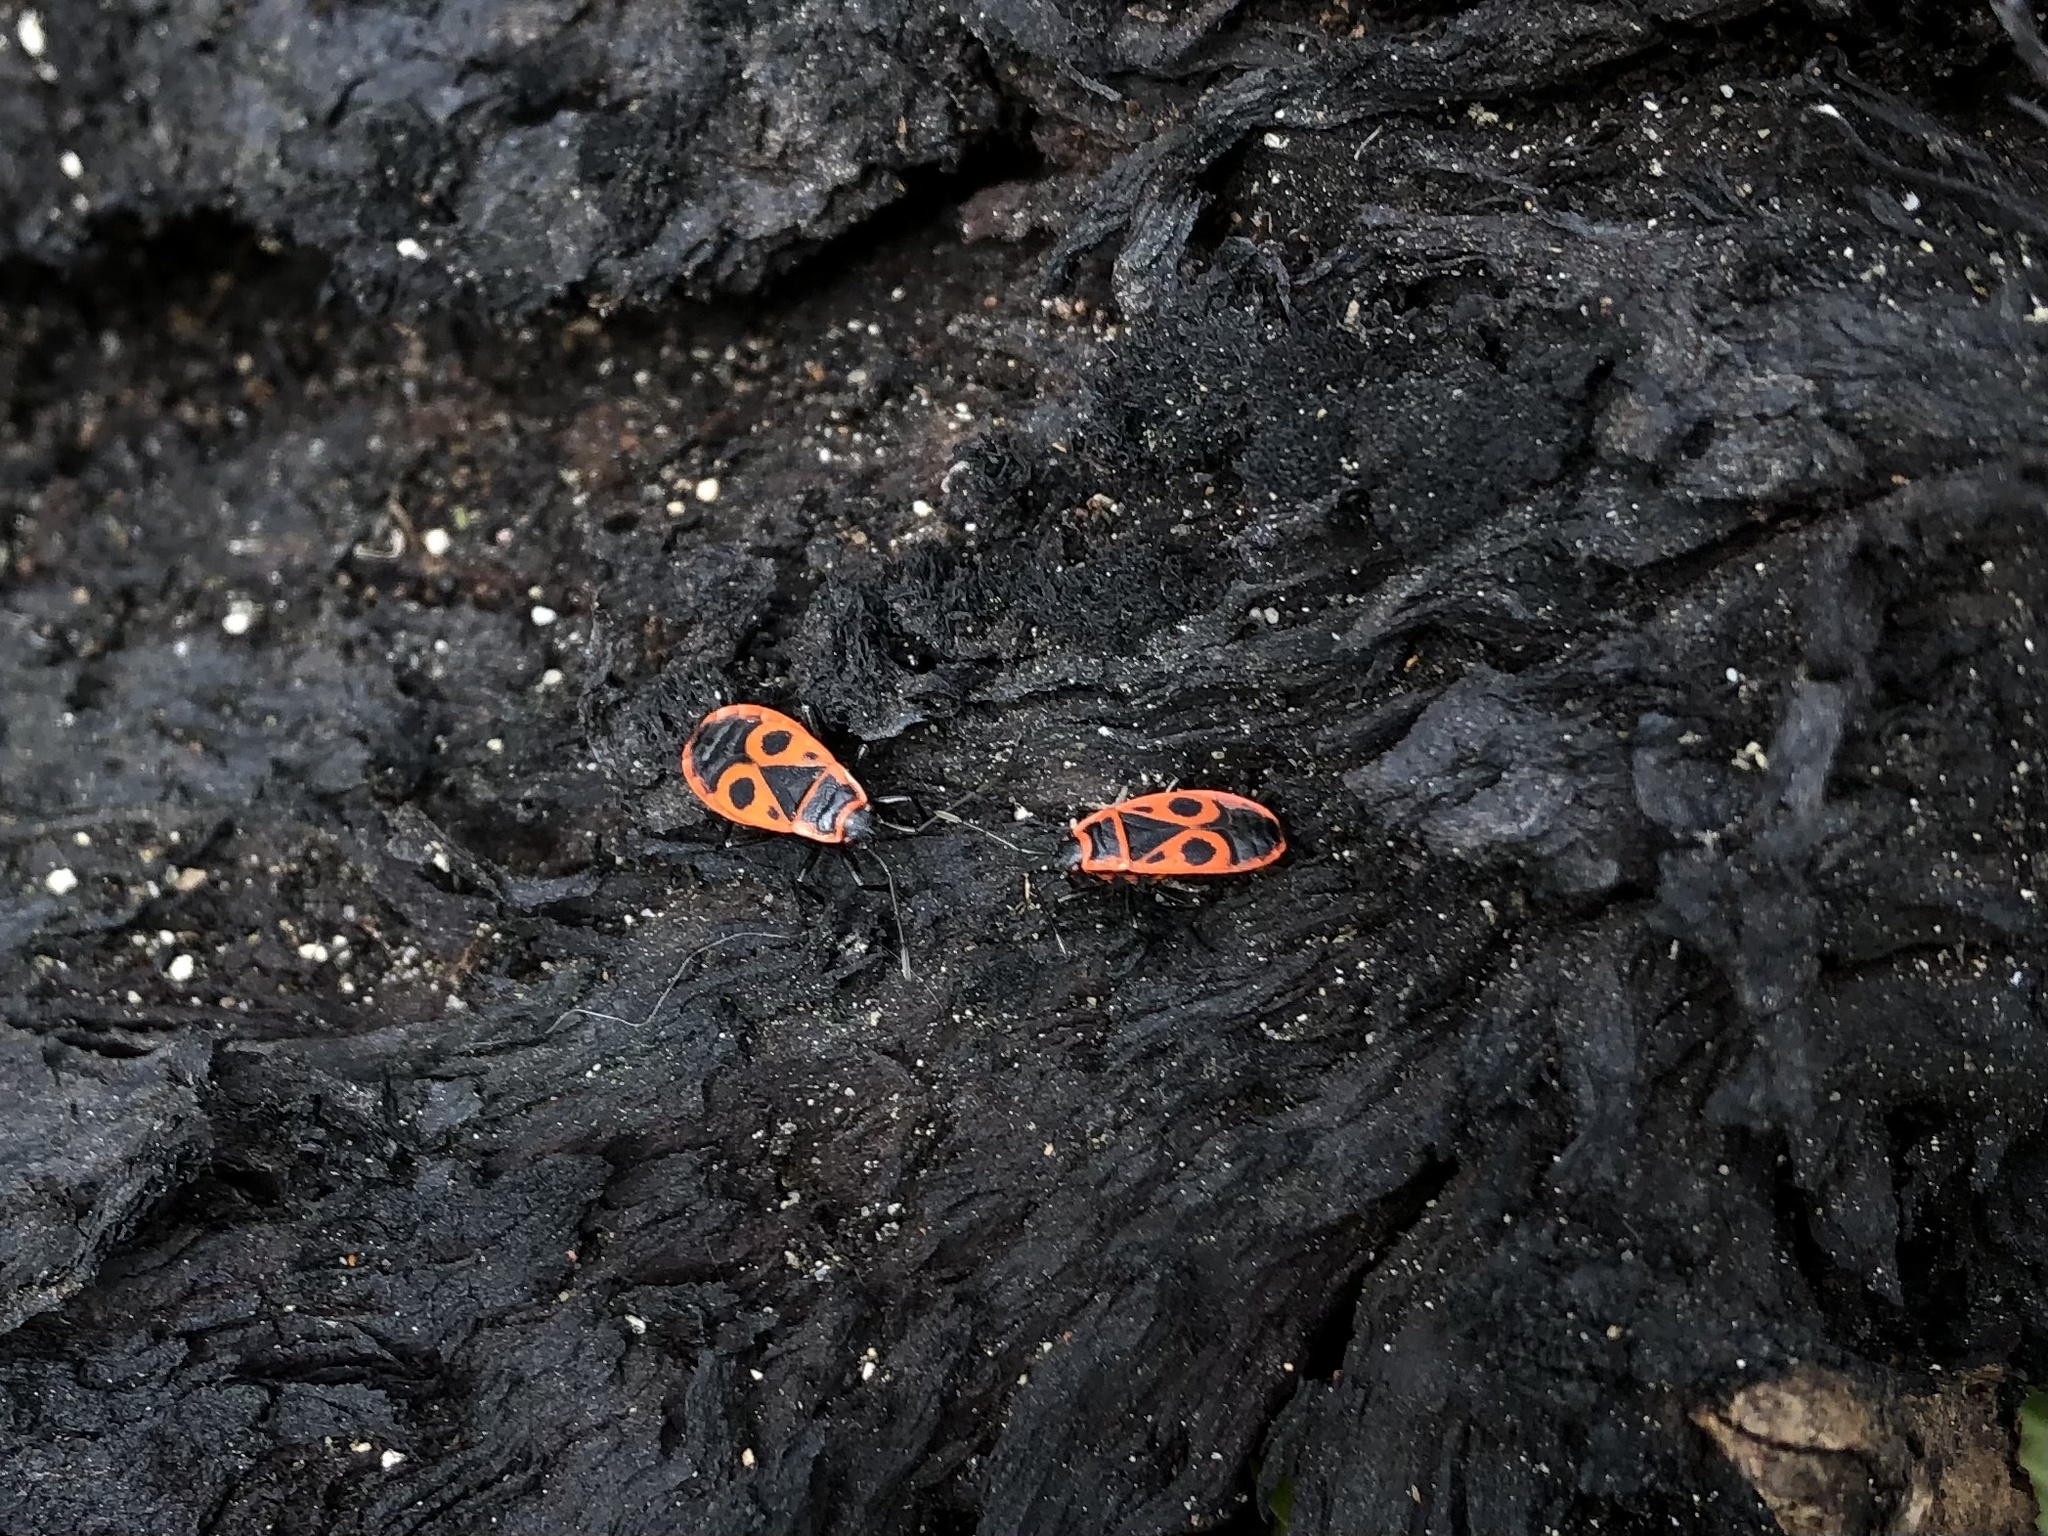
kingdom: Animalia
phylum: Arthropoda
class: Insecta
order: Hemiptera
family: Pyrrhocoridae
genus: Pyrrhocoris
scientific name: Pyrrhocoris apterus
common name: Firebug
